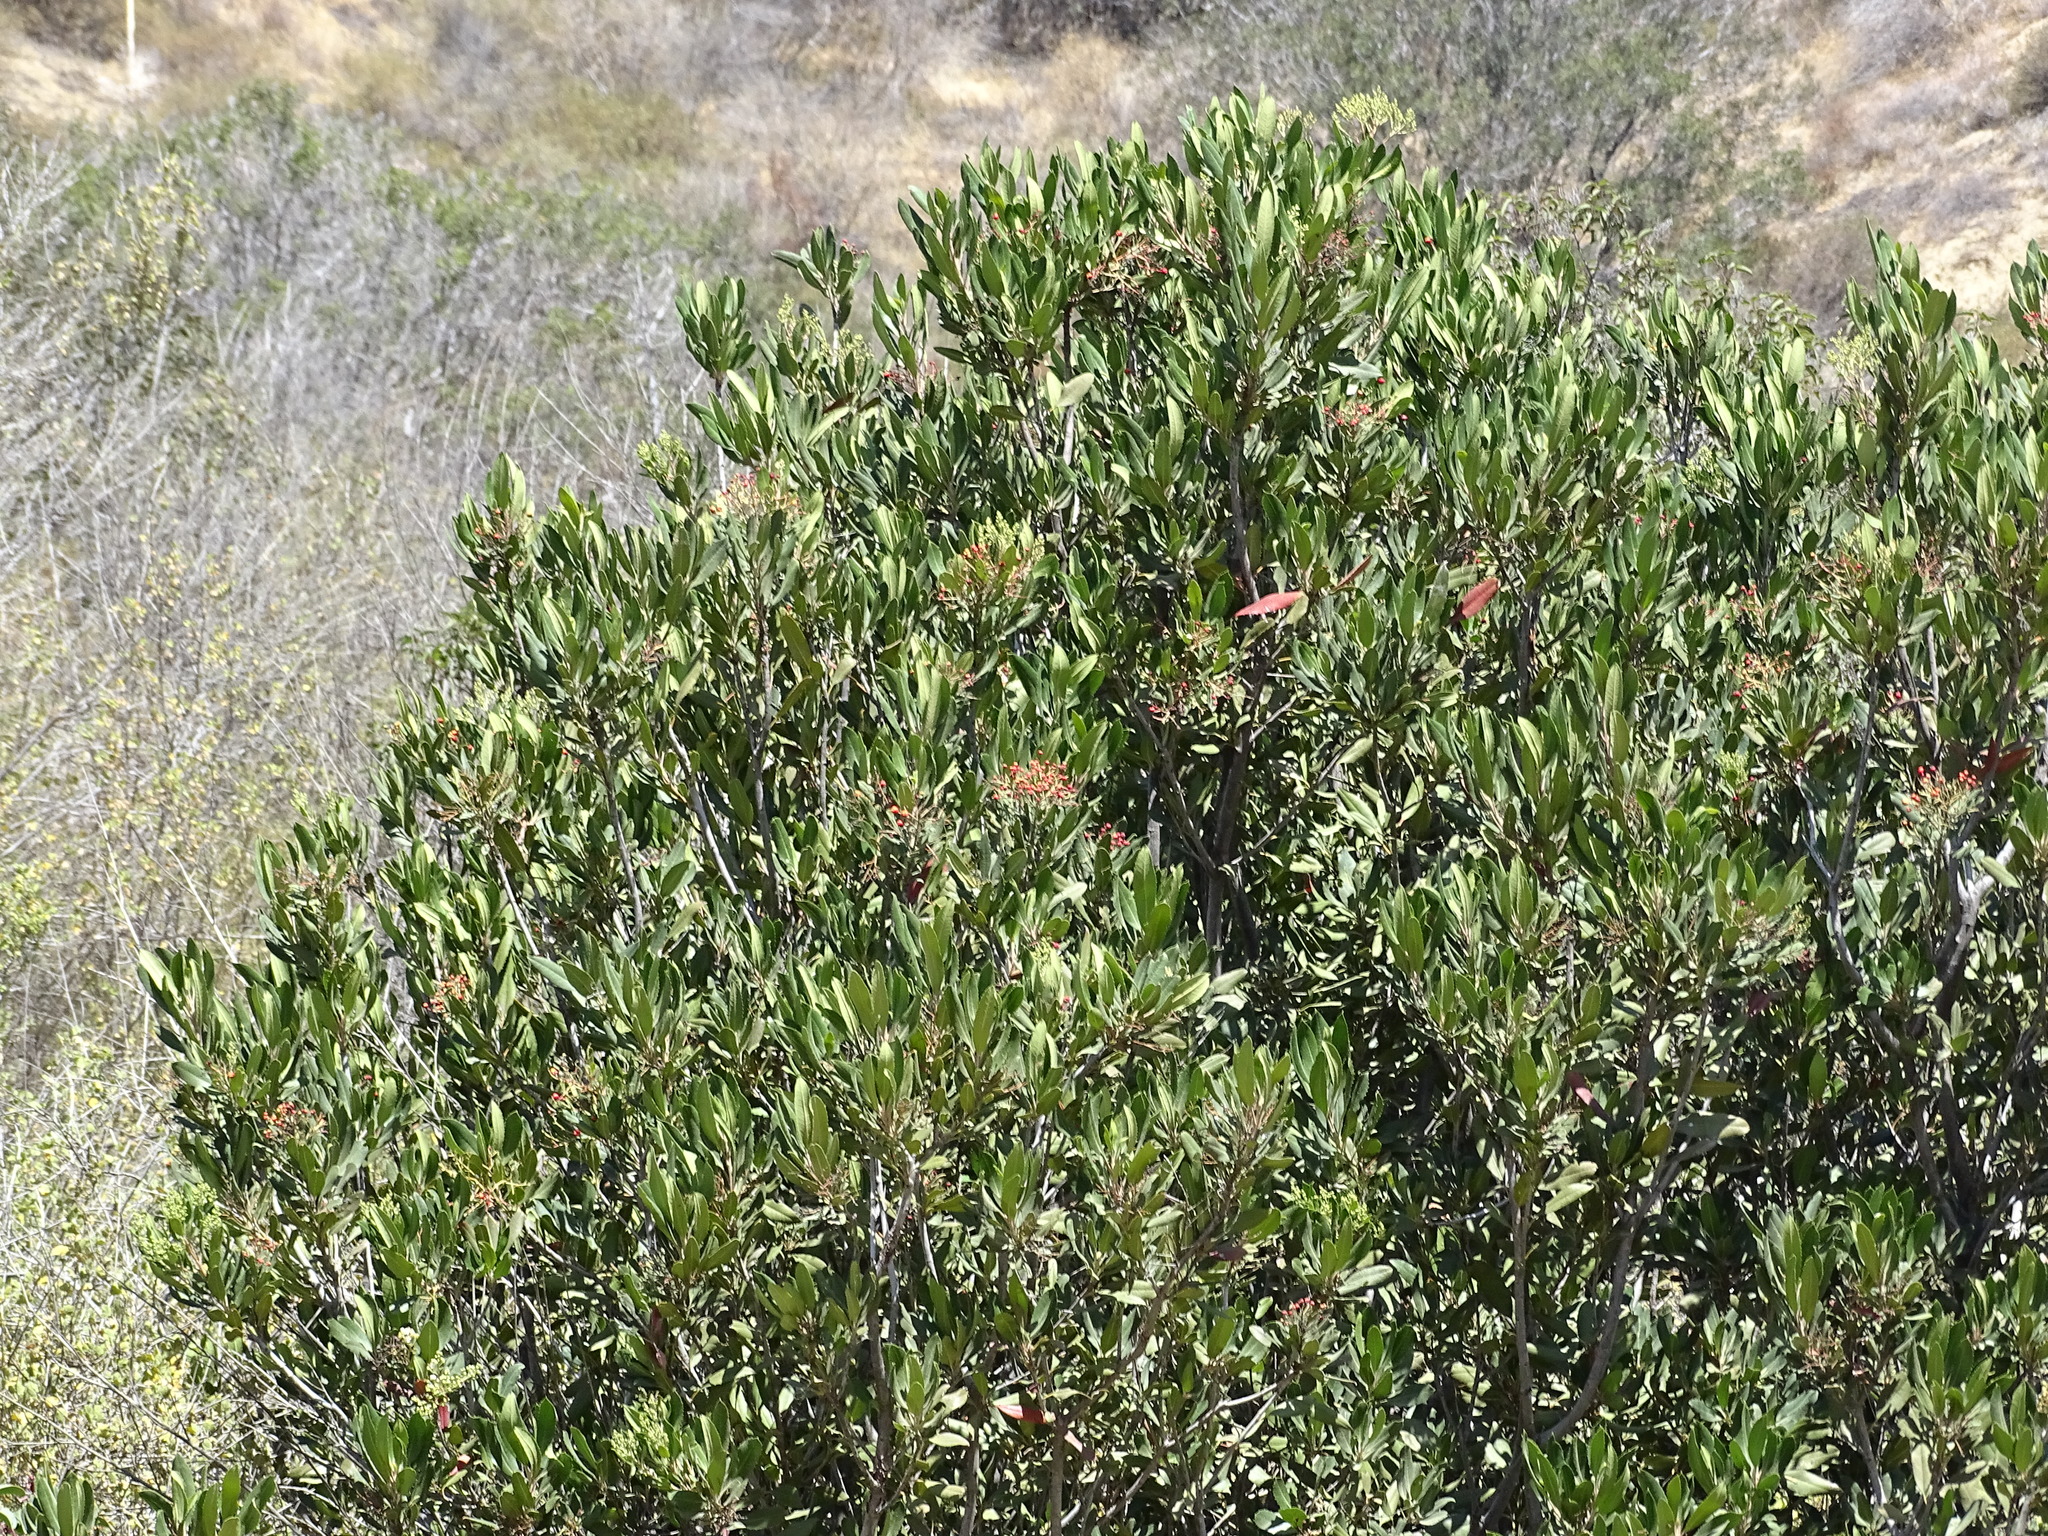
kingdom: Plantae
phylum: Tracheophyta
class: Magnoliopsida
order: Rosales
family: Rosaceae
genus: Heteromeles
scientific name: Heteromeles arbutifolia
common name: California-holly
